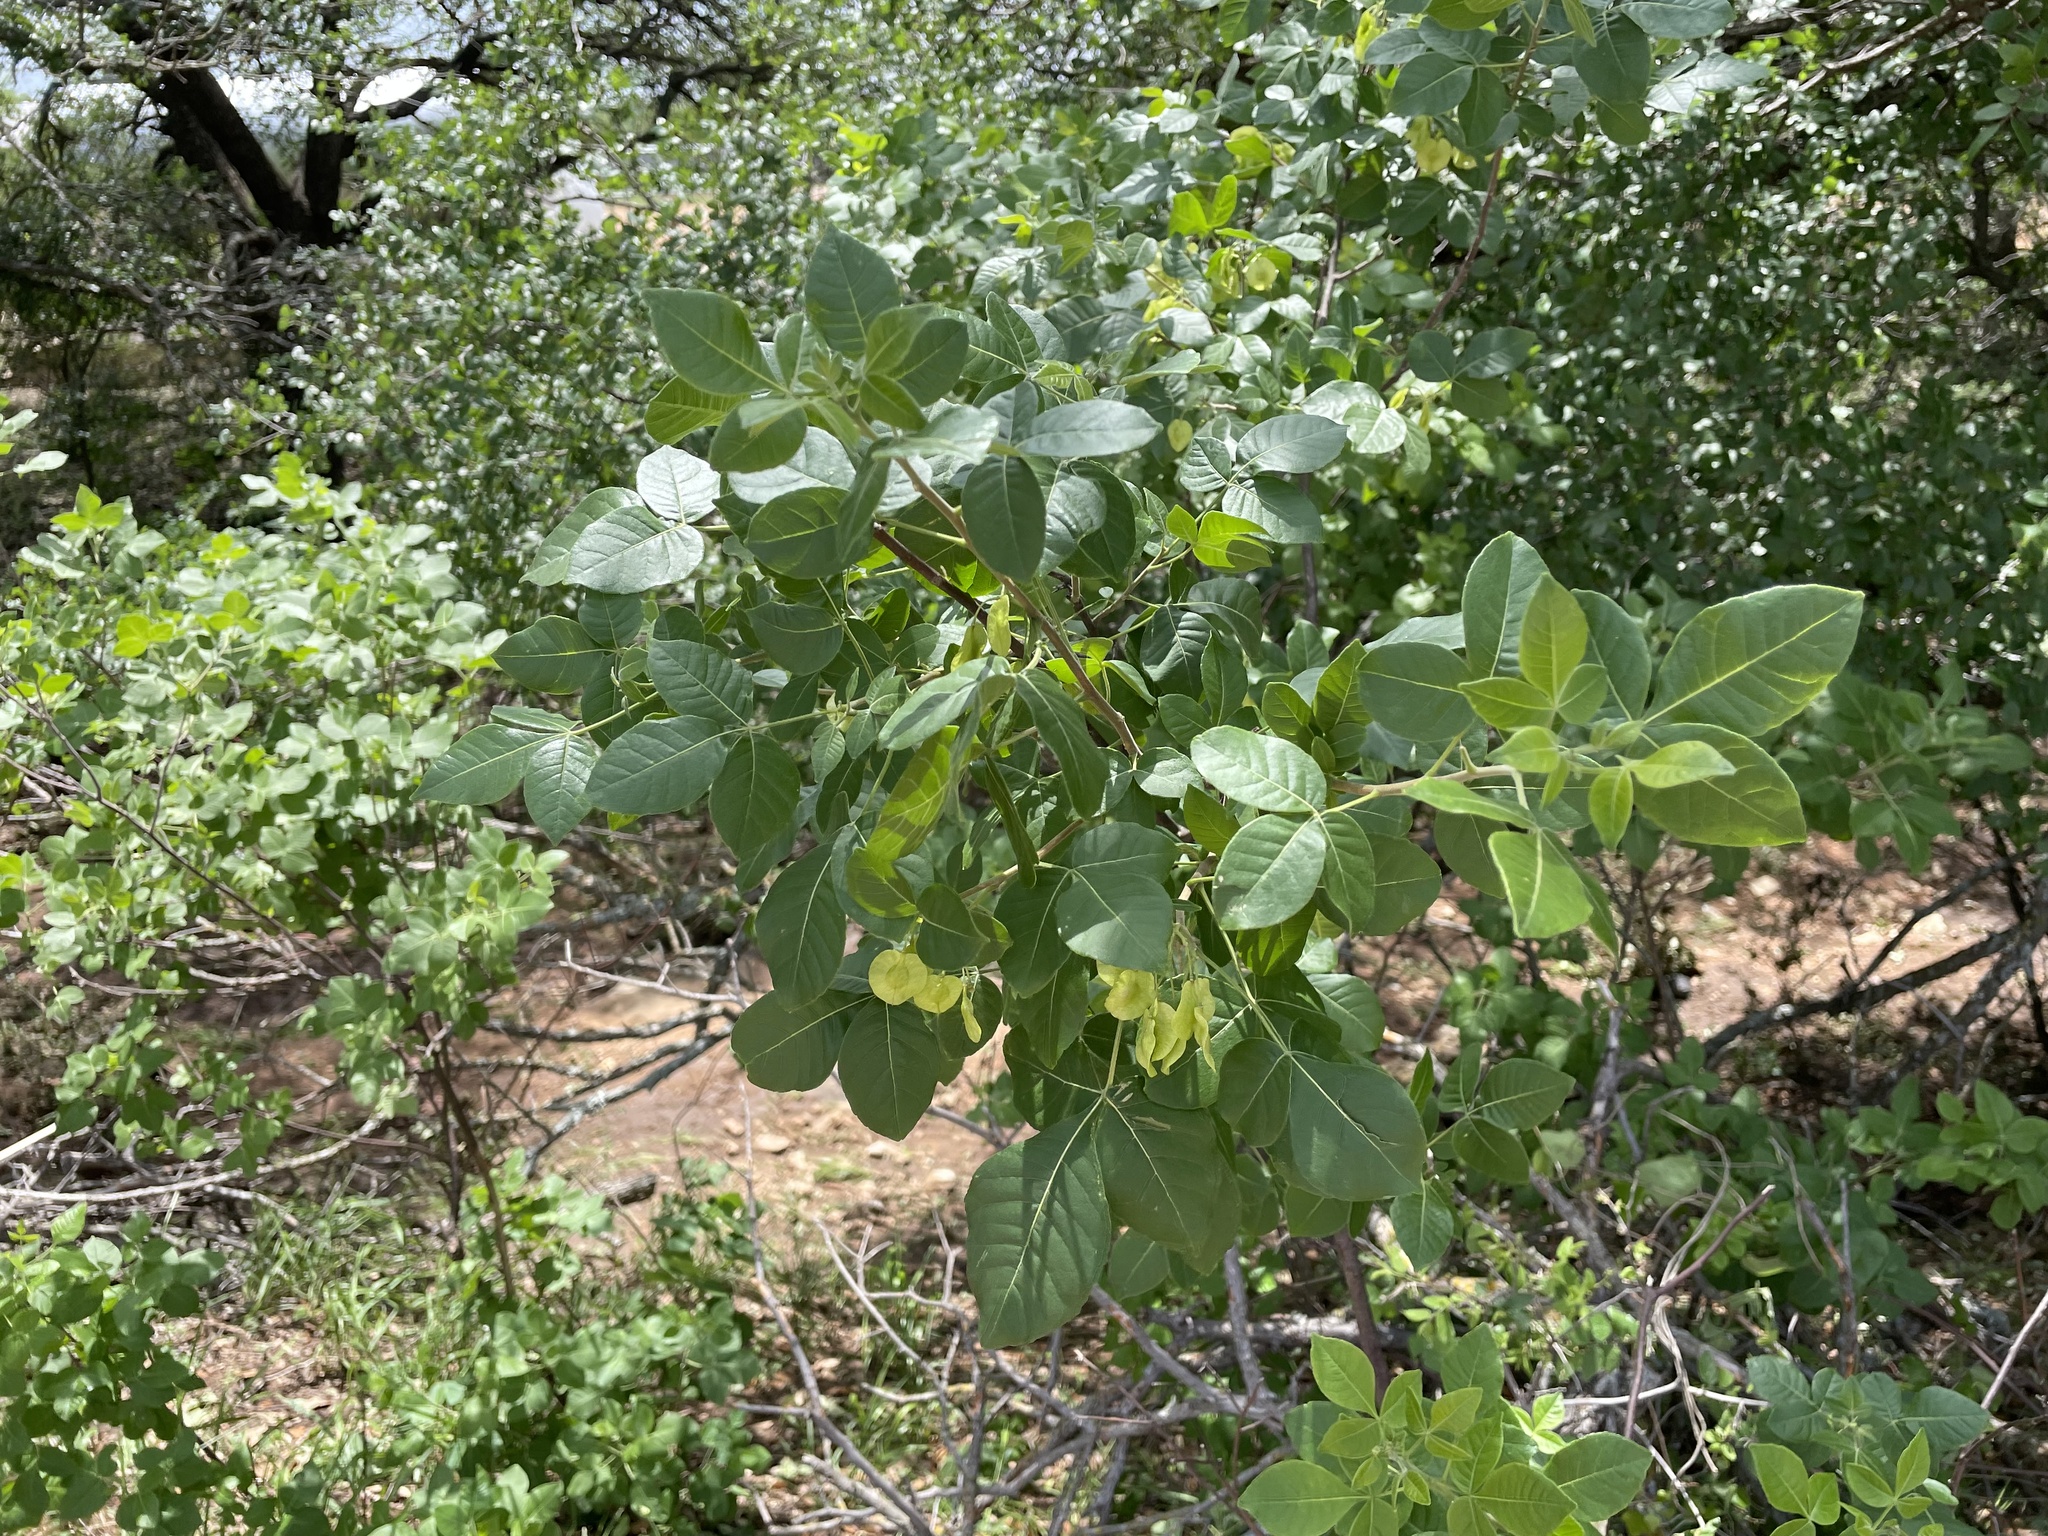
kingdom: Plantae
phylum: Tracheophyta
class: Magnoliopsida
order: Sapindales
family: Rutaceae
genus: Ptelea
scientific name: Ptelea trifoliata
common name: Common hop-tree
